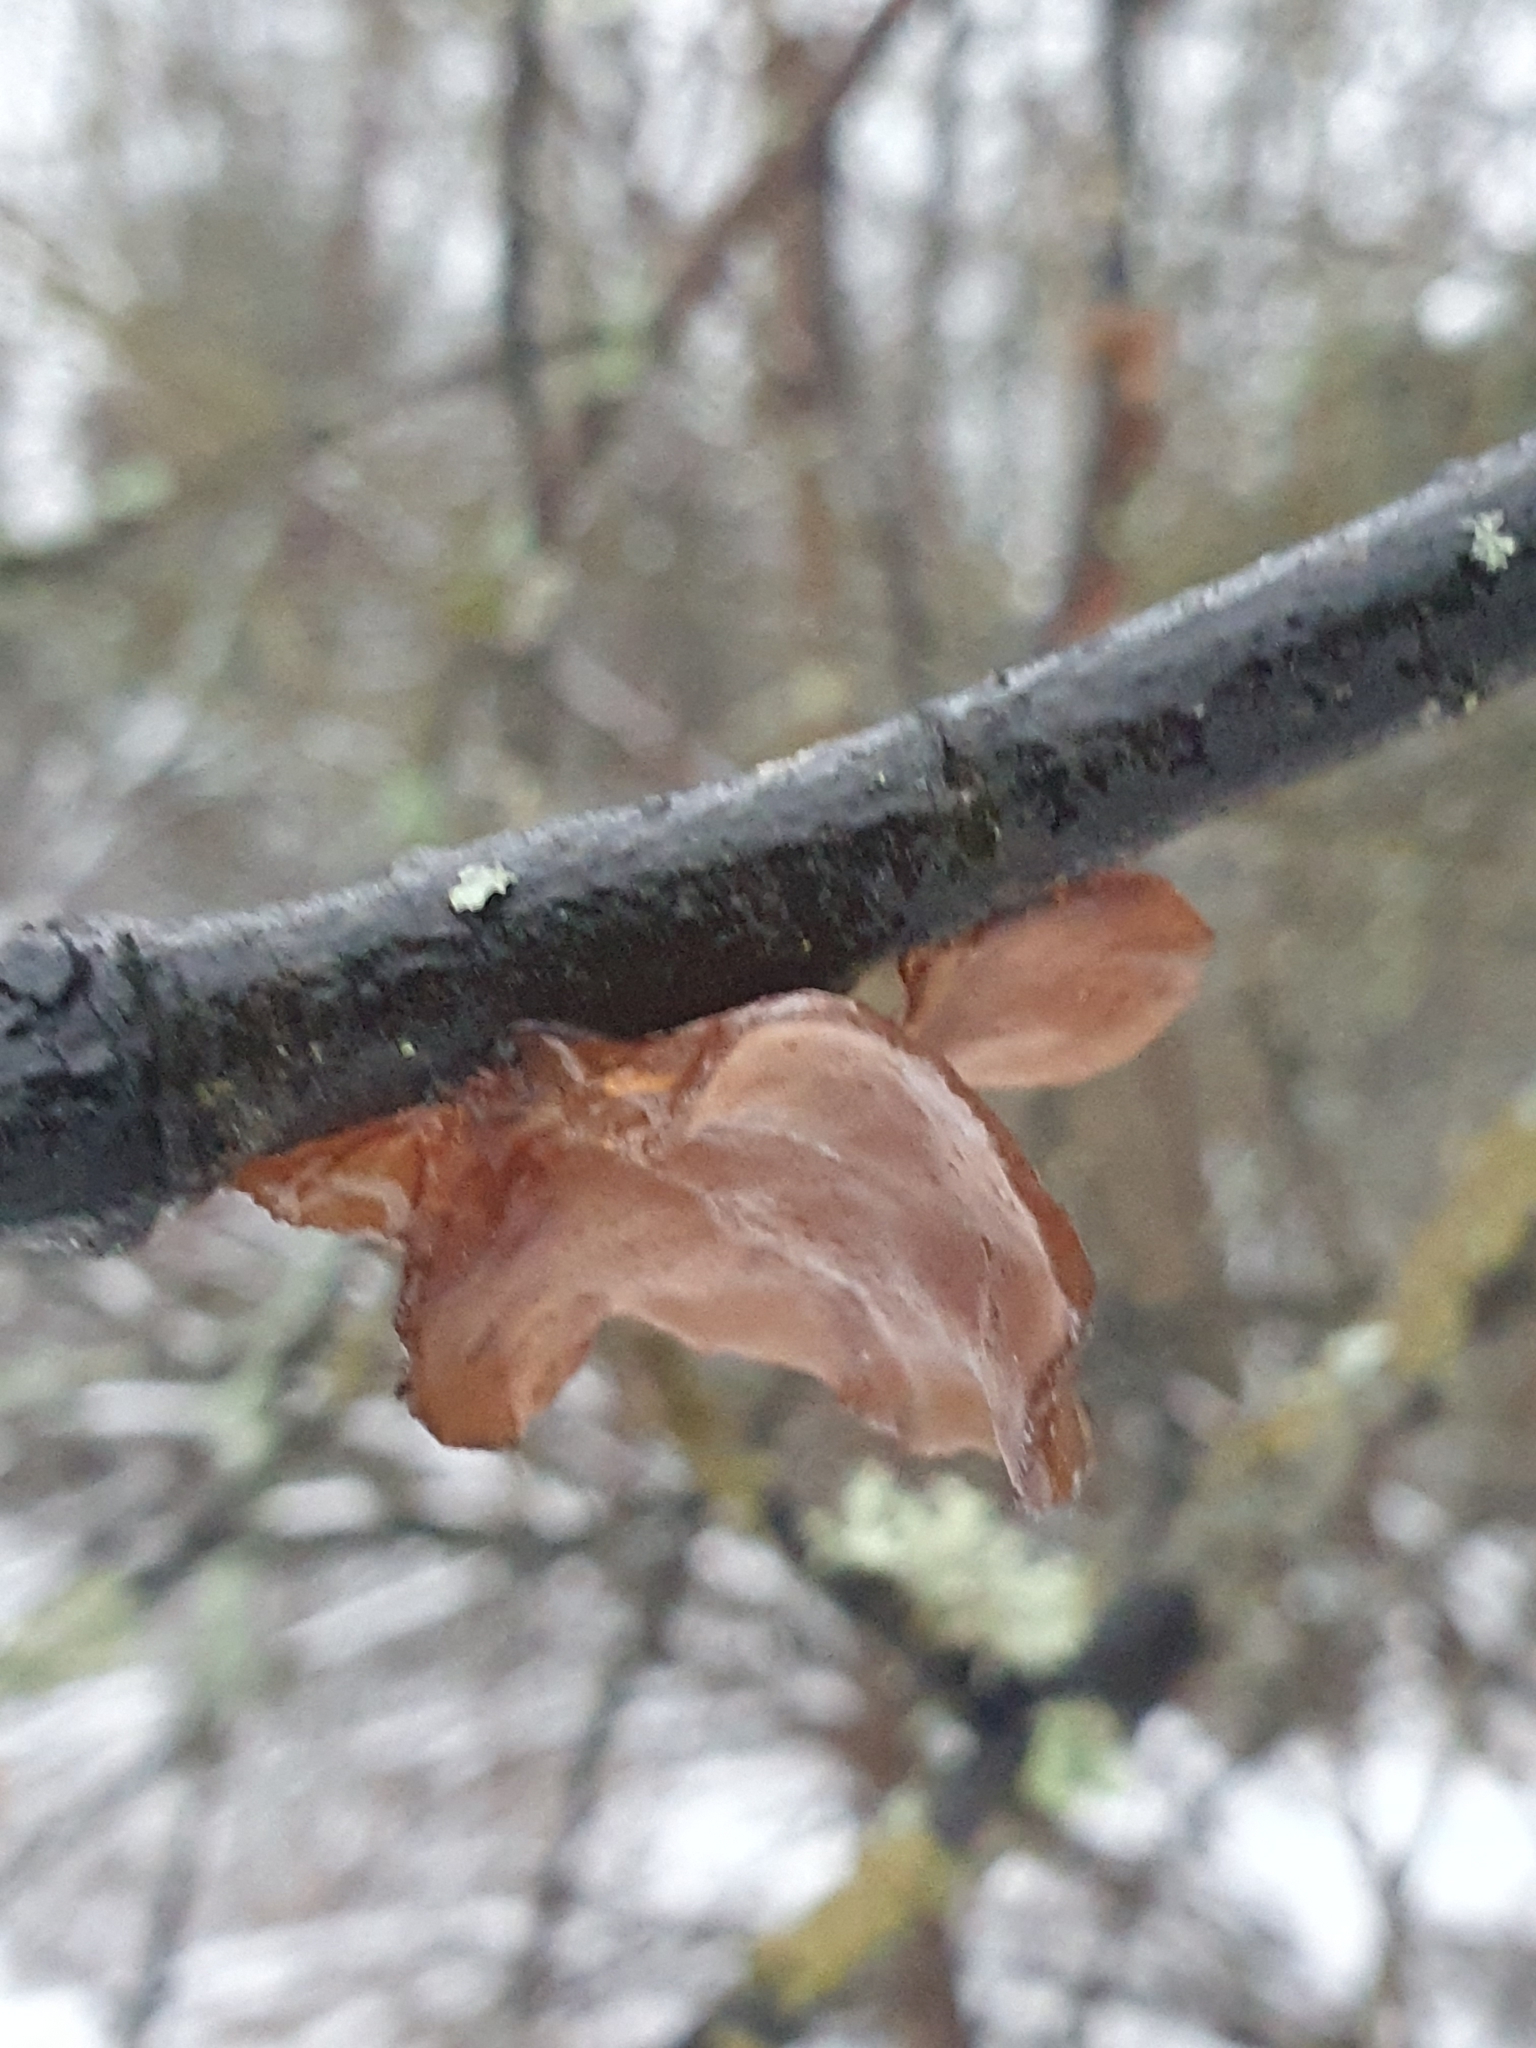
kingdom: Fungi
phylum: Basidiomycota
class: Agaricomycetes
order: Auriculariales
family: Auriculariaceae
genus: Exidia
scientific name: Exidia recisa
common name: Amber jelly
